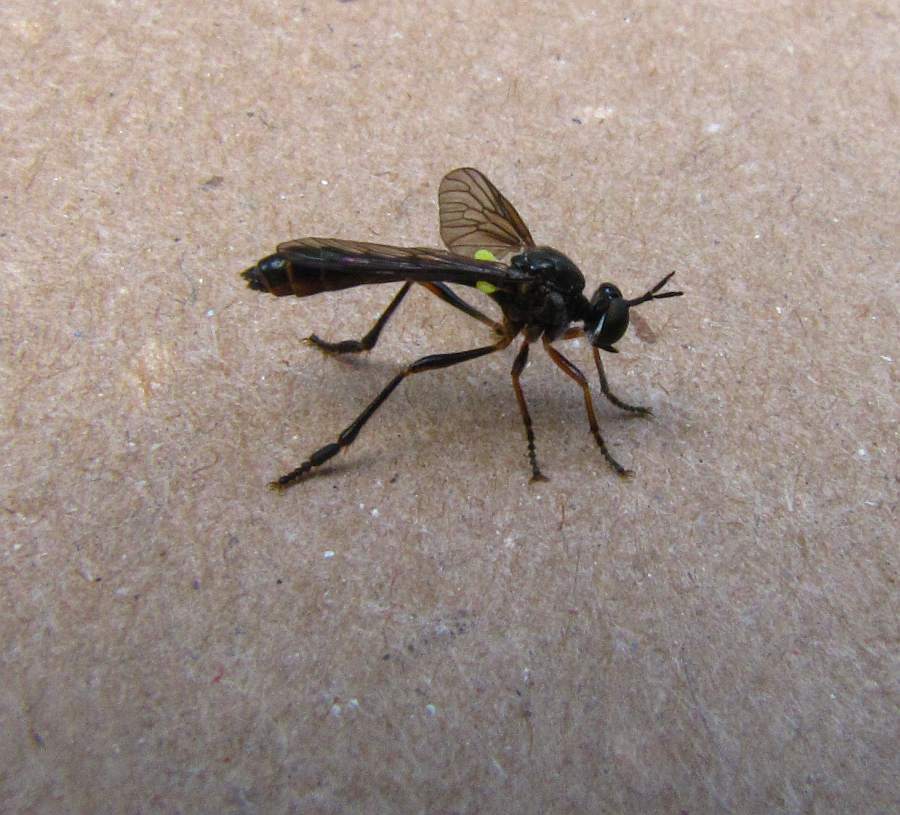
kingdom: Animalia
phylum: Arthropoda
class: Insecta
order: Diptera
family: Asilidae
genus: Dioctria
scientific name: Dioctria hyalipennis
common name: Stripe-legged robberfly
